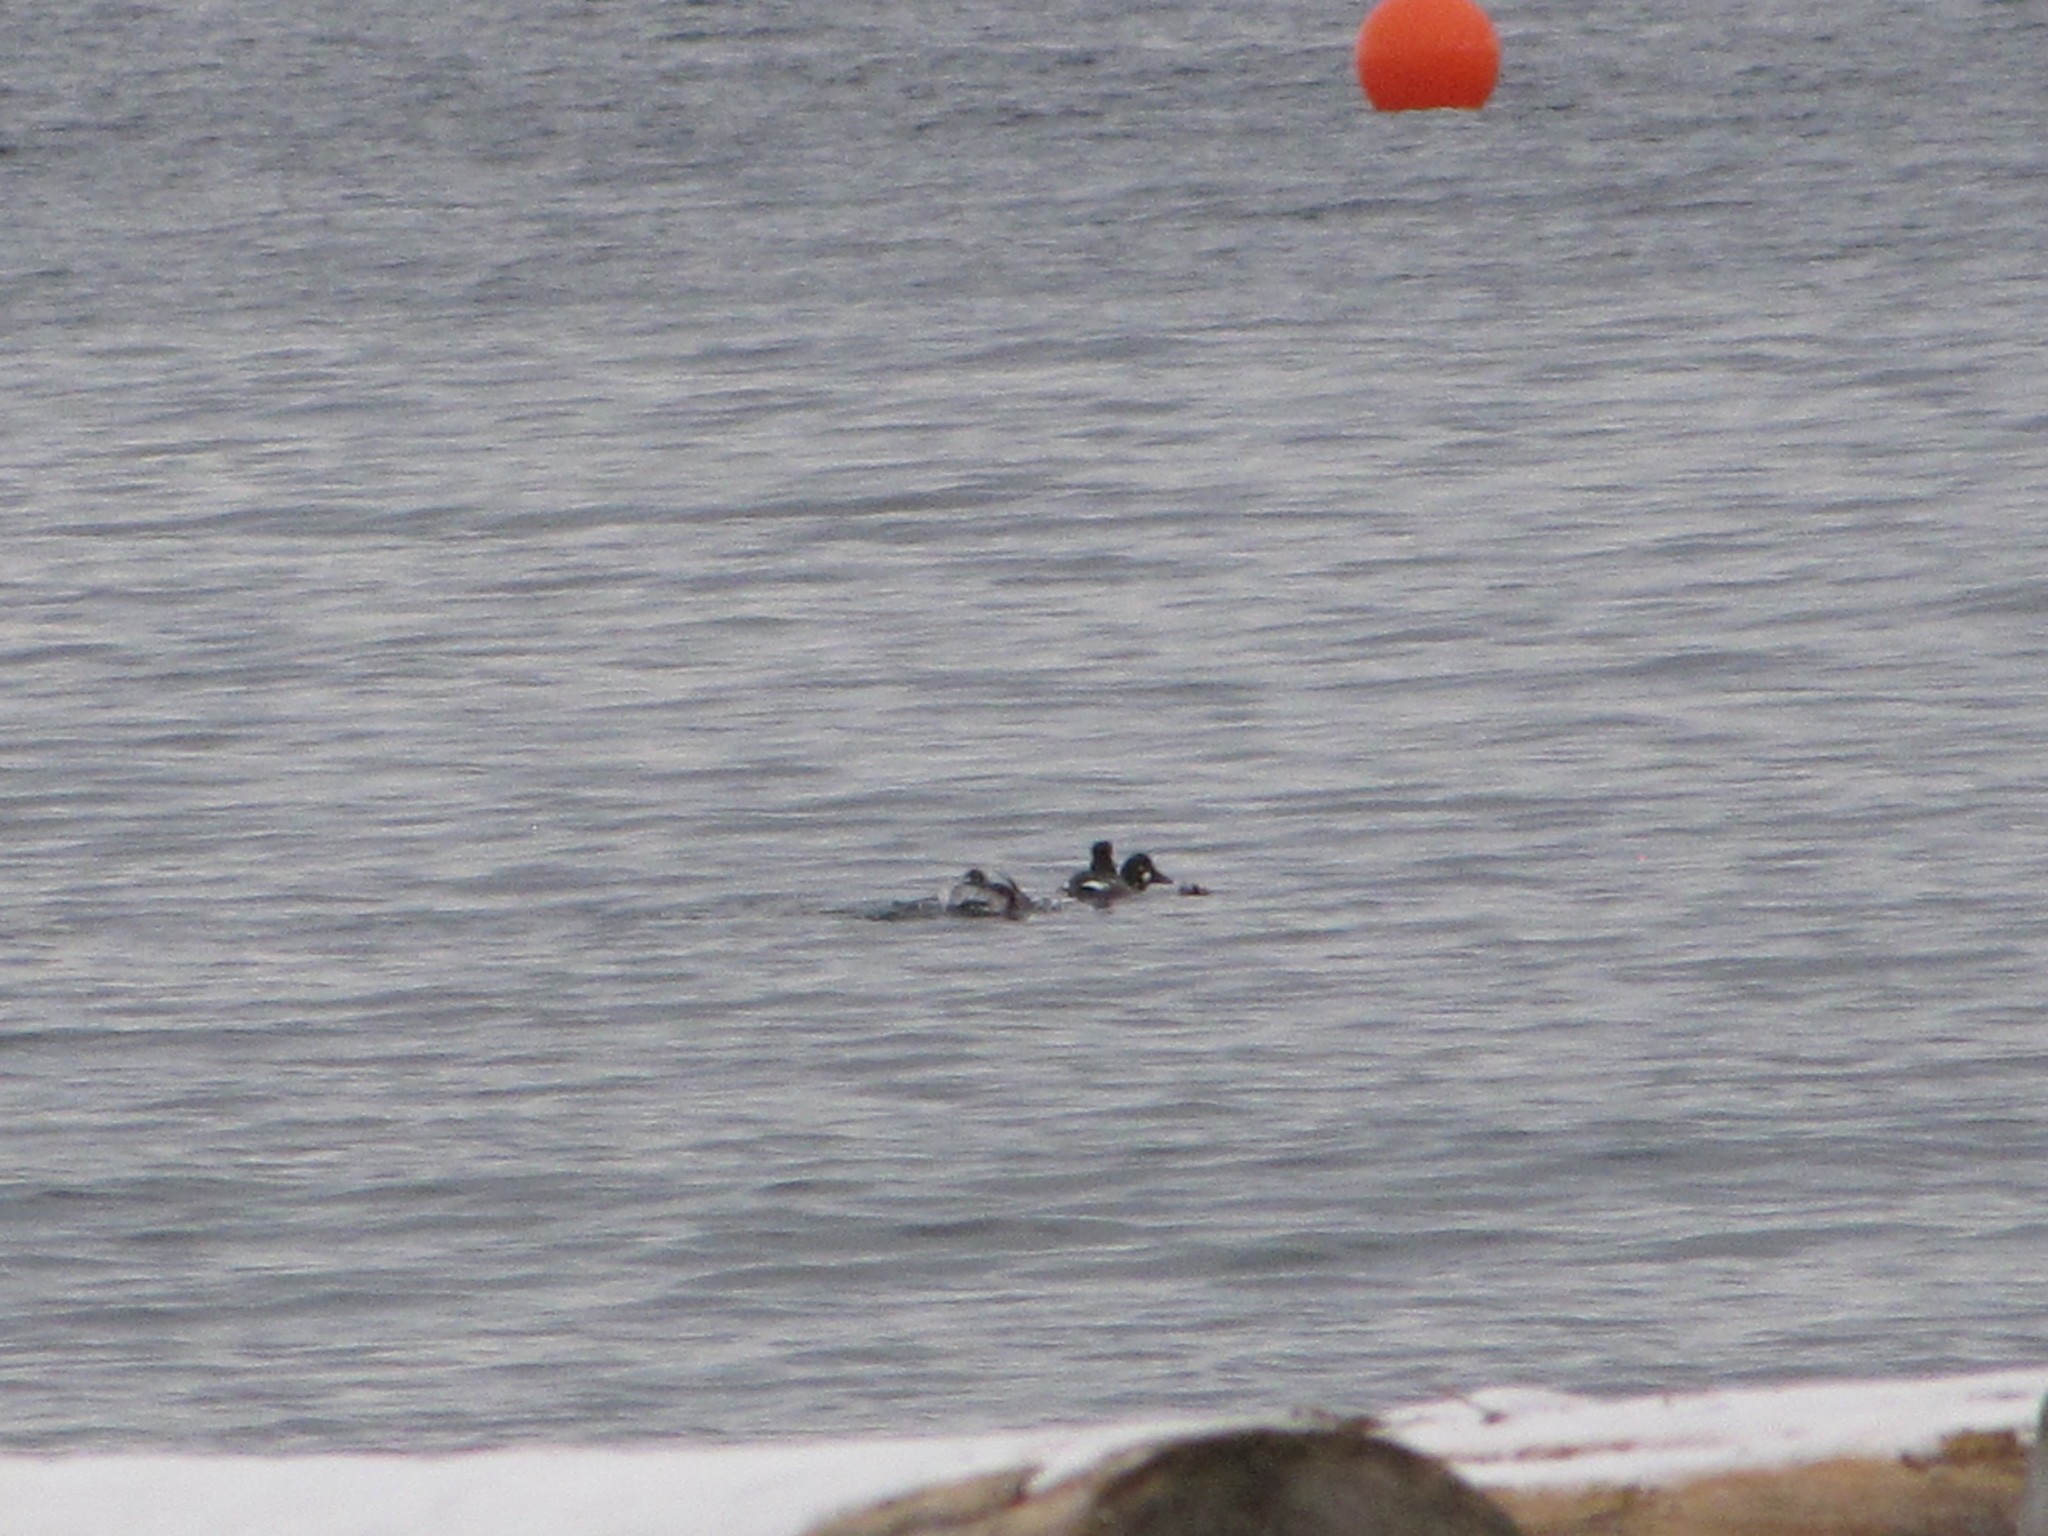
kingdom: Animalia
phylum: Chordata
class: Aves
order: Anseriformes
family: Anatidae
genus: Bucephala
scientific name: Bucephala clangula
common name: Common goldeneye
